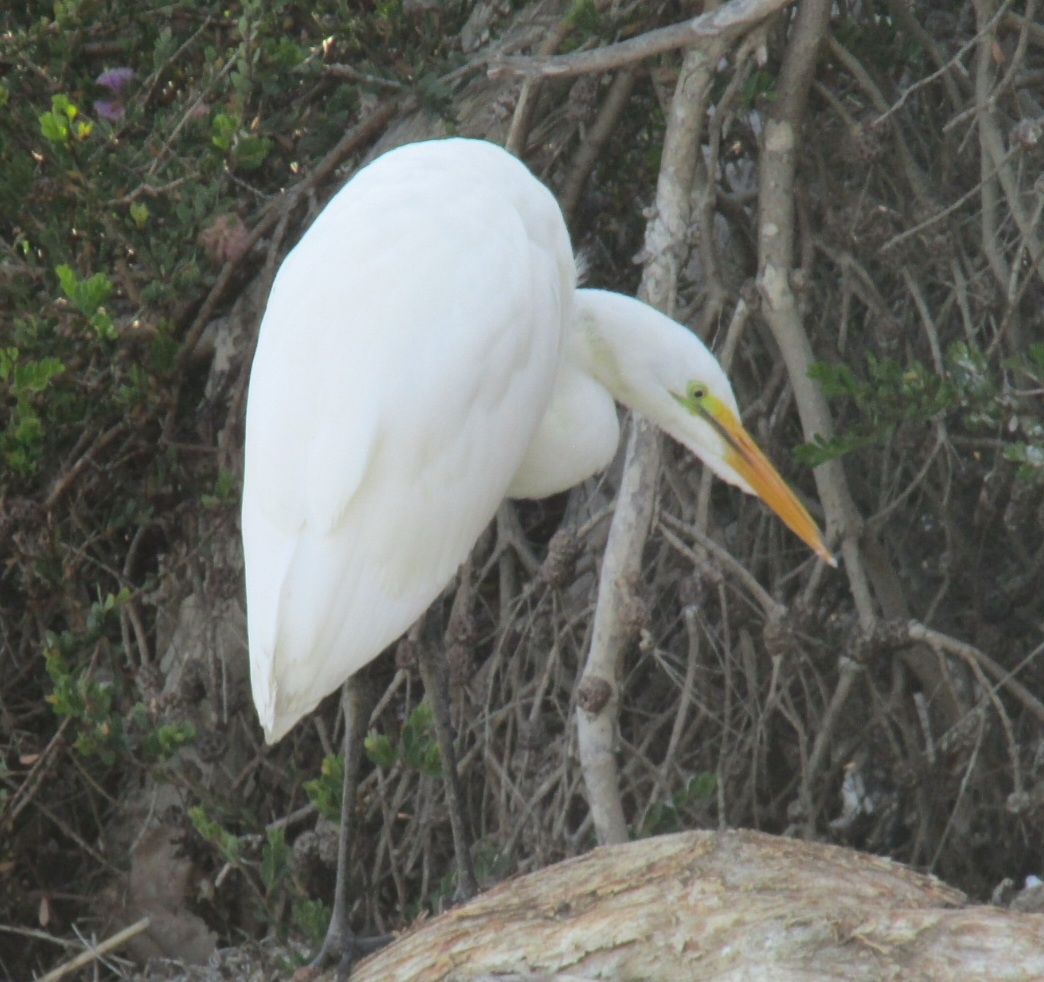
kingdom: Animalia
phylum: Chordata
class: Aves
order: Pelecaniformes
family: Ardeidae
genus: Ardea
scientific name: Ardea alba
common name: Great egret
